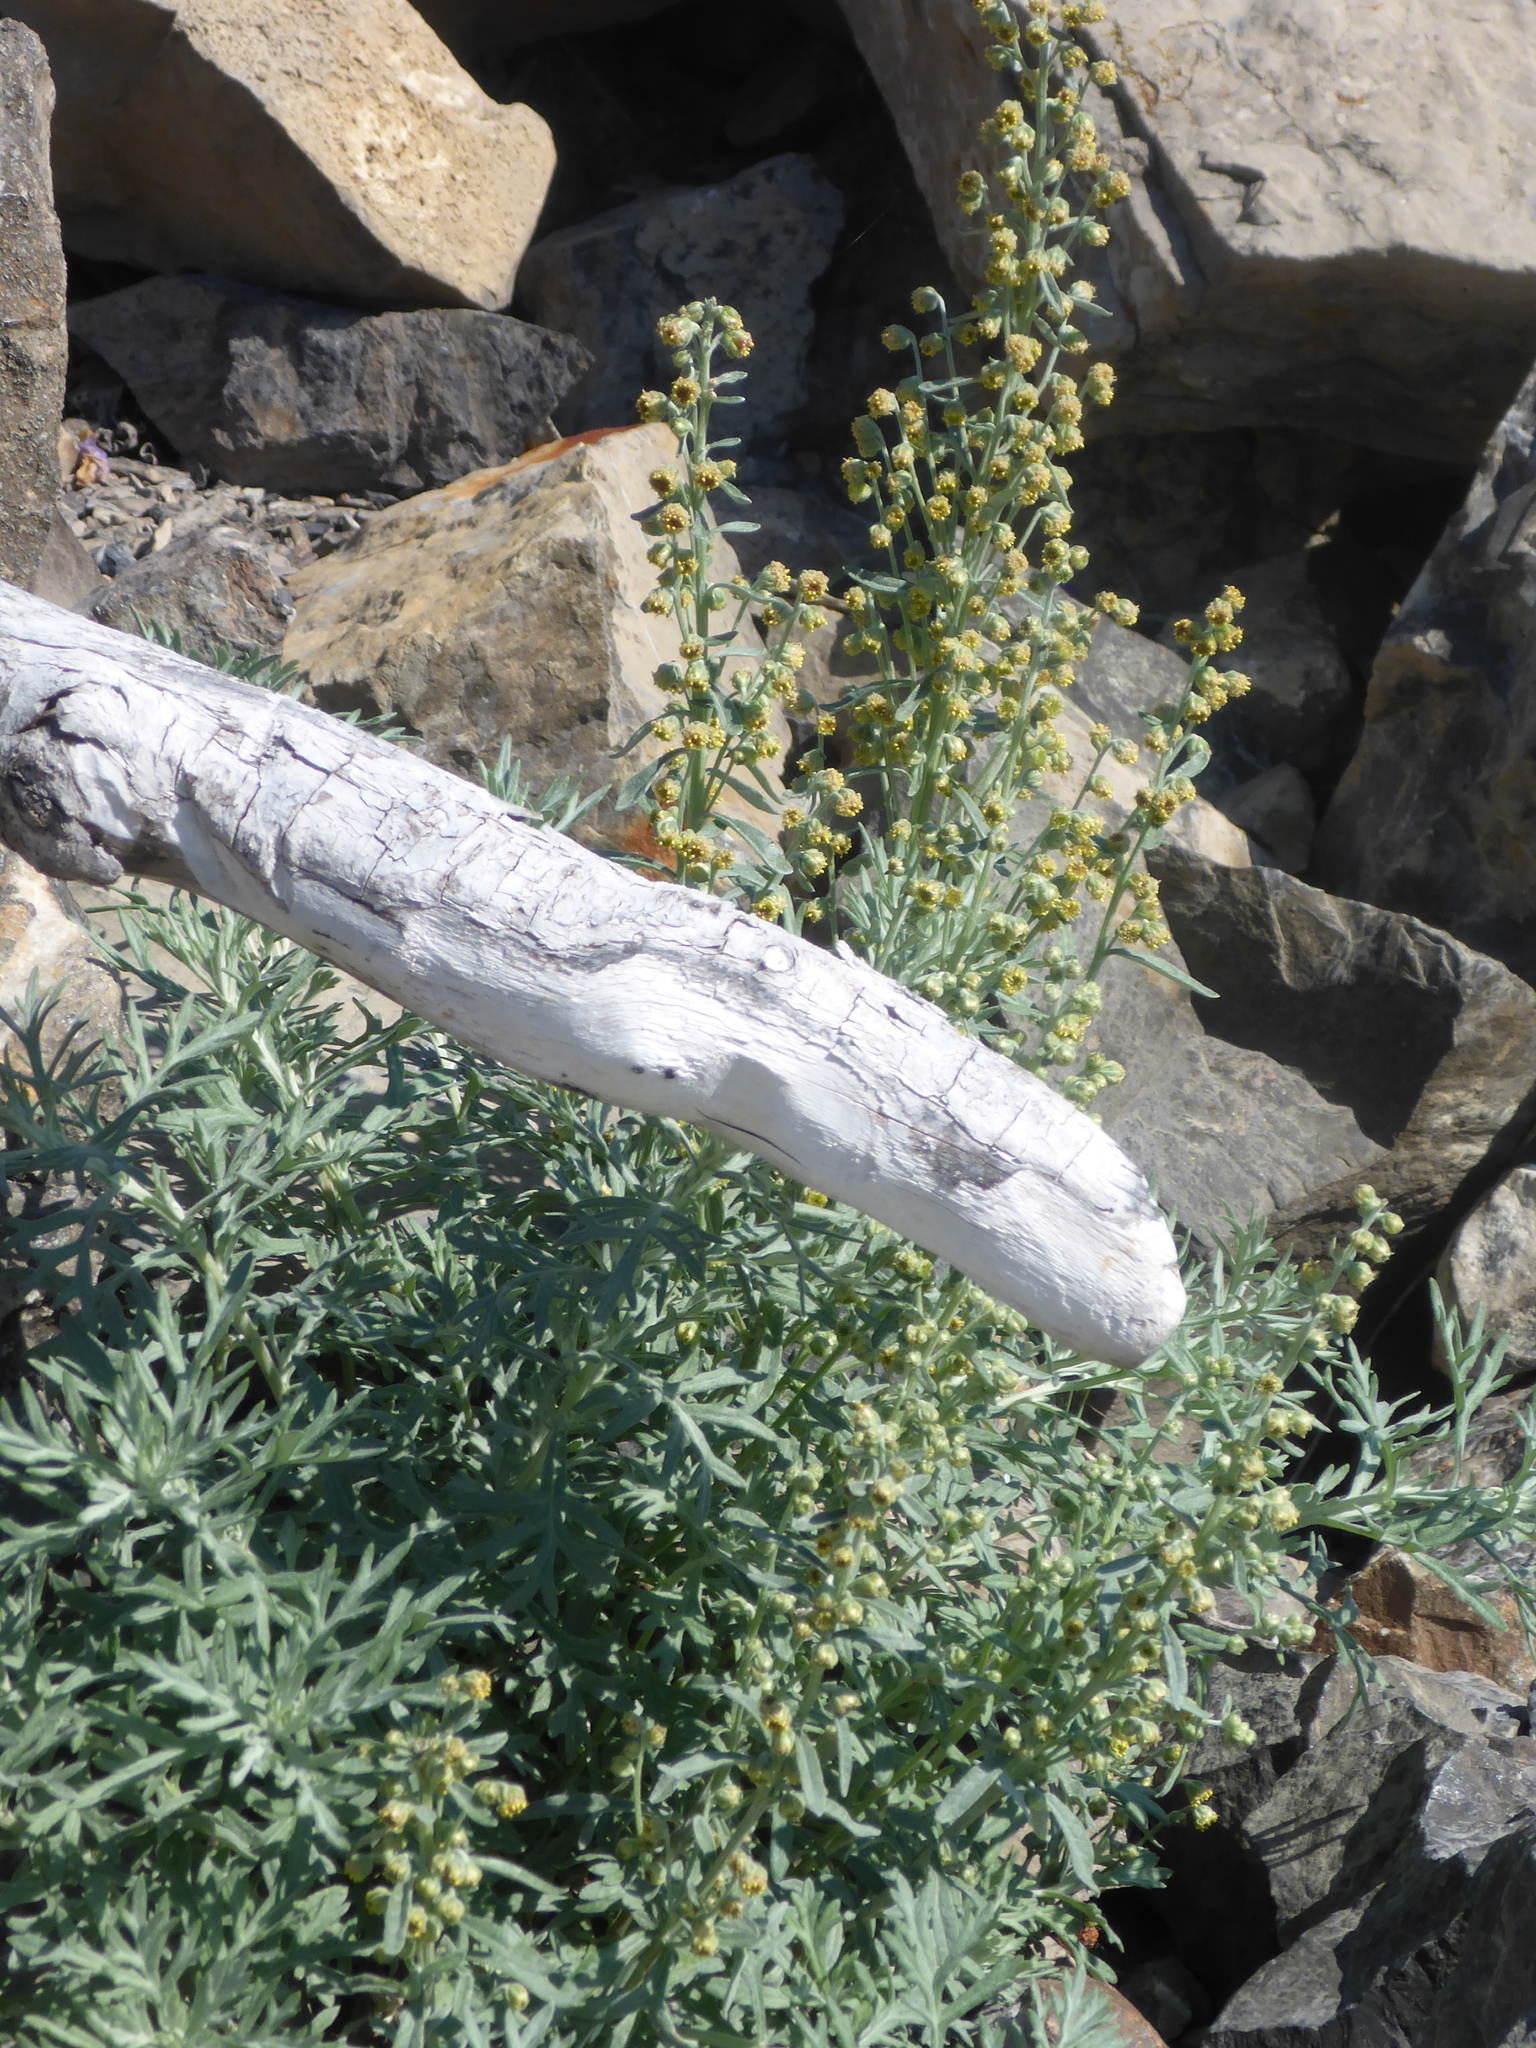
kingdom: Plantae
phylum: Tracheophyta
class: Magnoliopsida
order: Asterales
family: Asteraceae
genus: Artemisia
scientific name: Artemisia michauxiana
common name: Lemon sagewort
